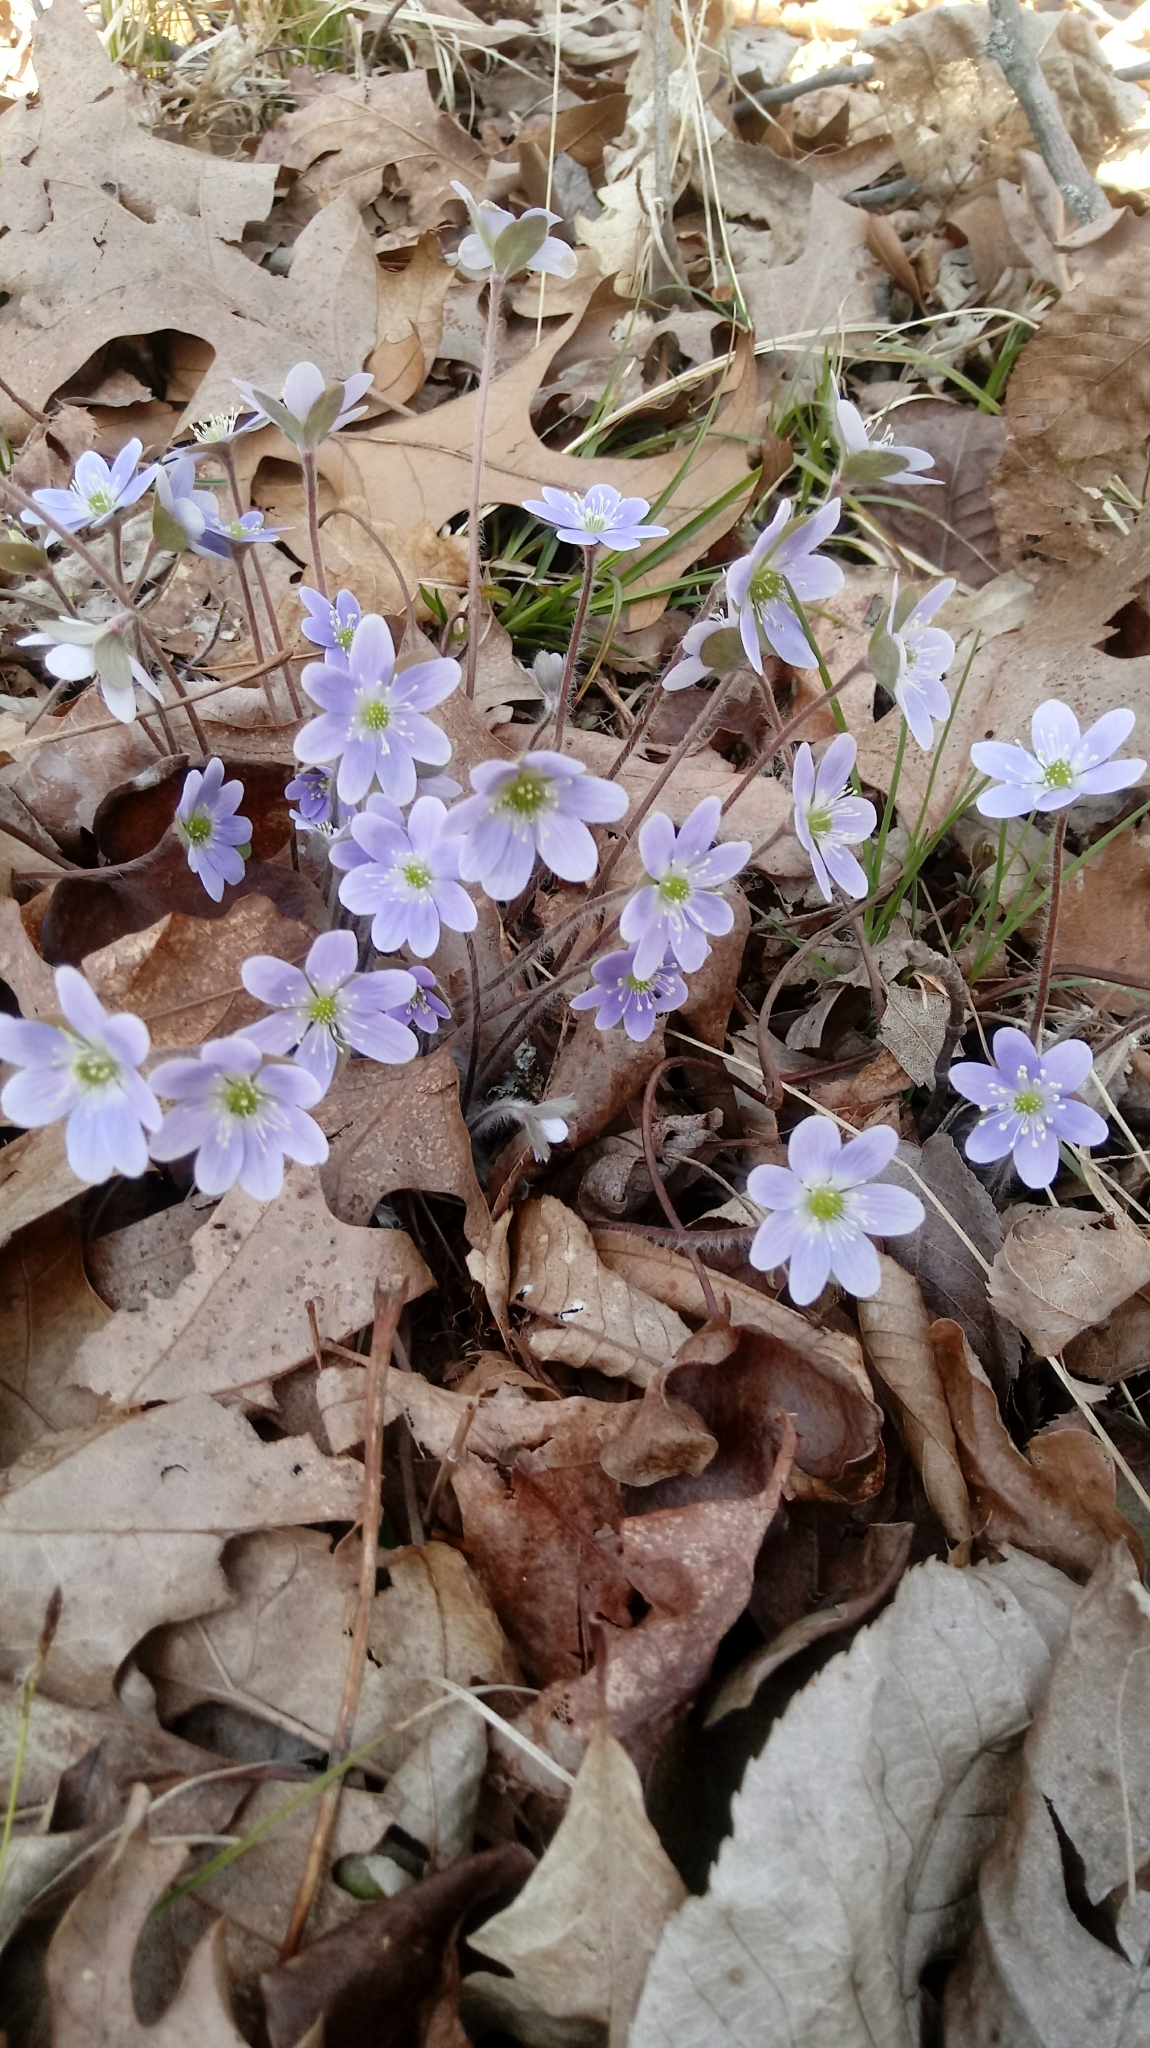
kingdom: Plantae
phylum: Tracheophyta
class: Magnoliopsida
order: Ranunculales
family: Ranunculaceae
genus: Hepatica
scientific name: Hepatica americana
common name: American hepatica
